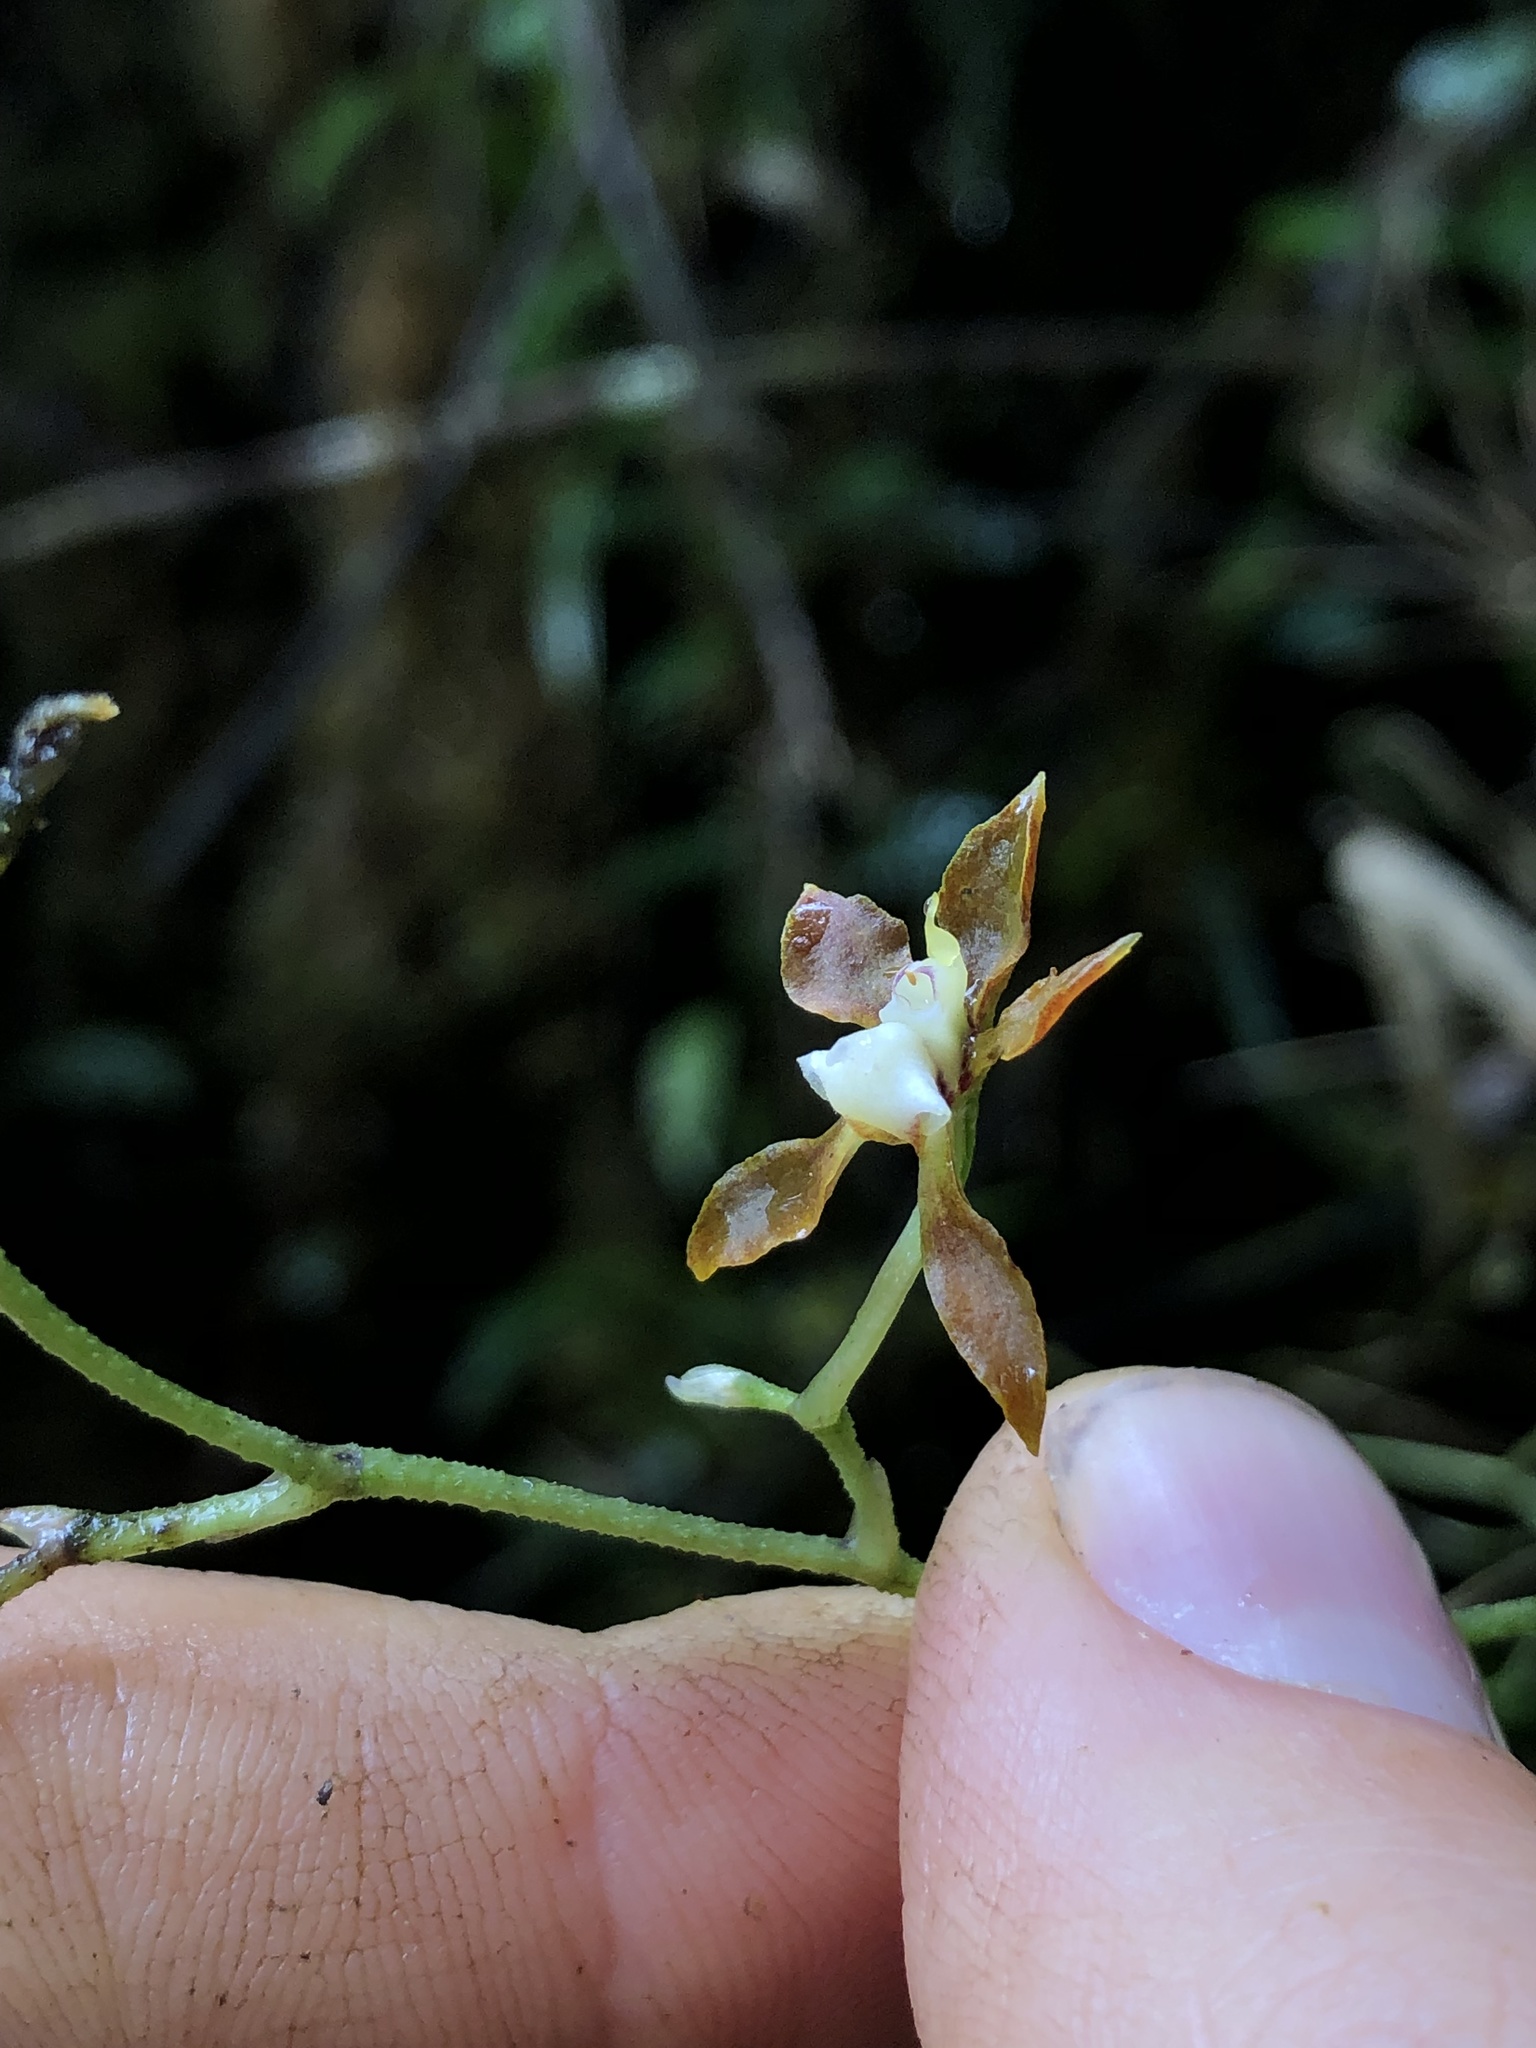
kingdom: Plantae
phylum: Tracheophyta
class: Liliopsida
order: Asparagales
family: Orchidaceae
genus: Cyrtochilum
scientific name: Cyrtochilum scabiosum
